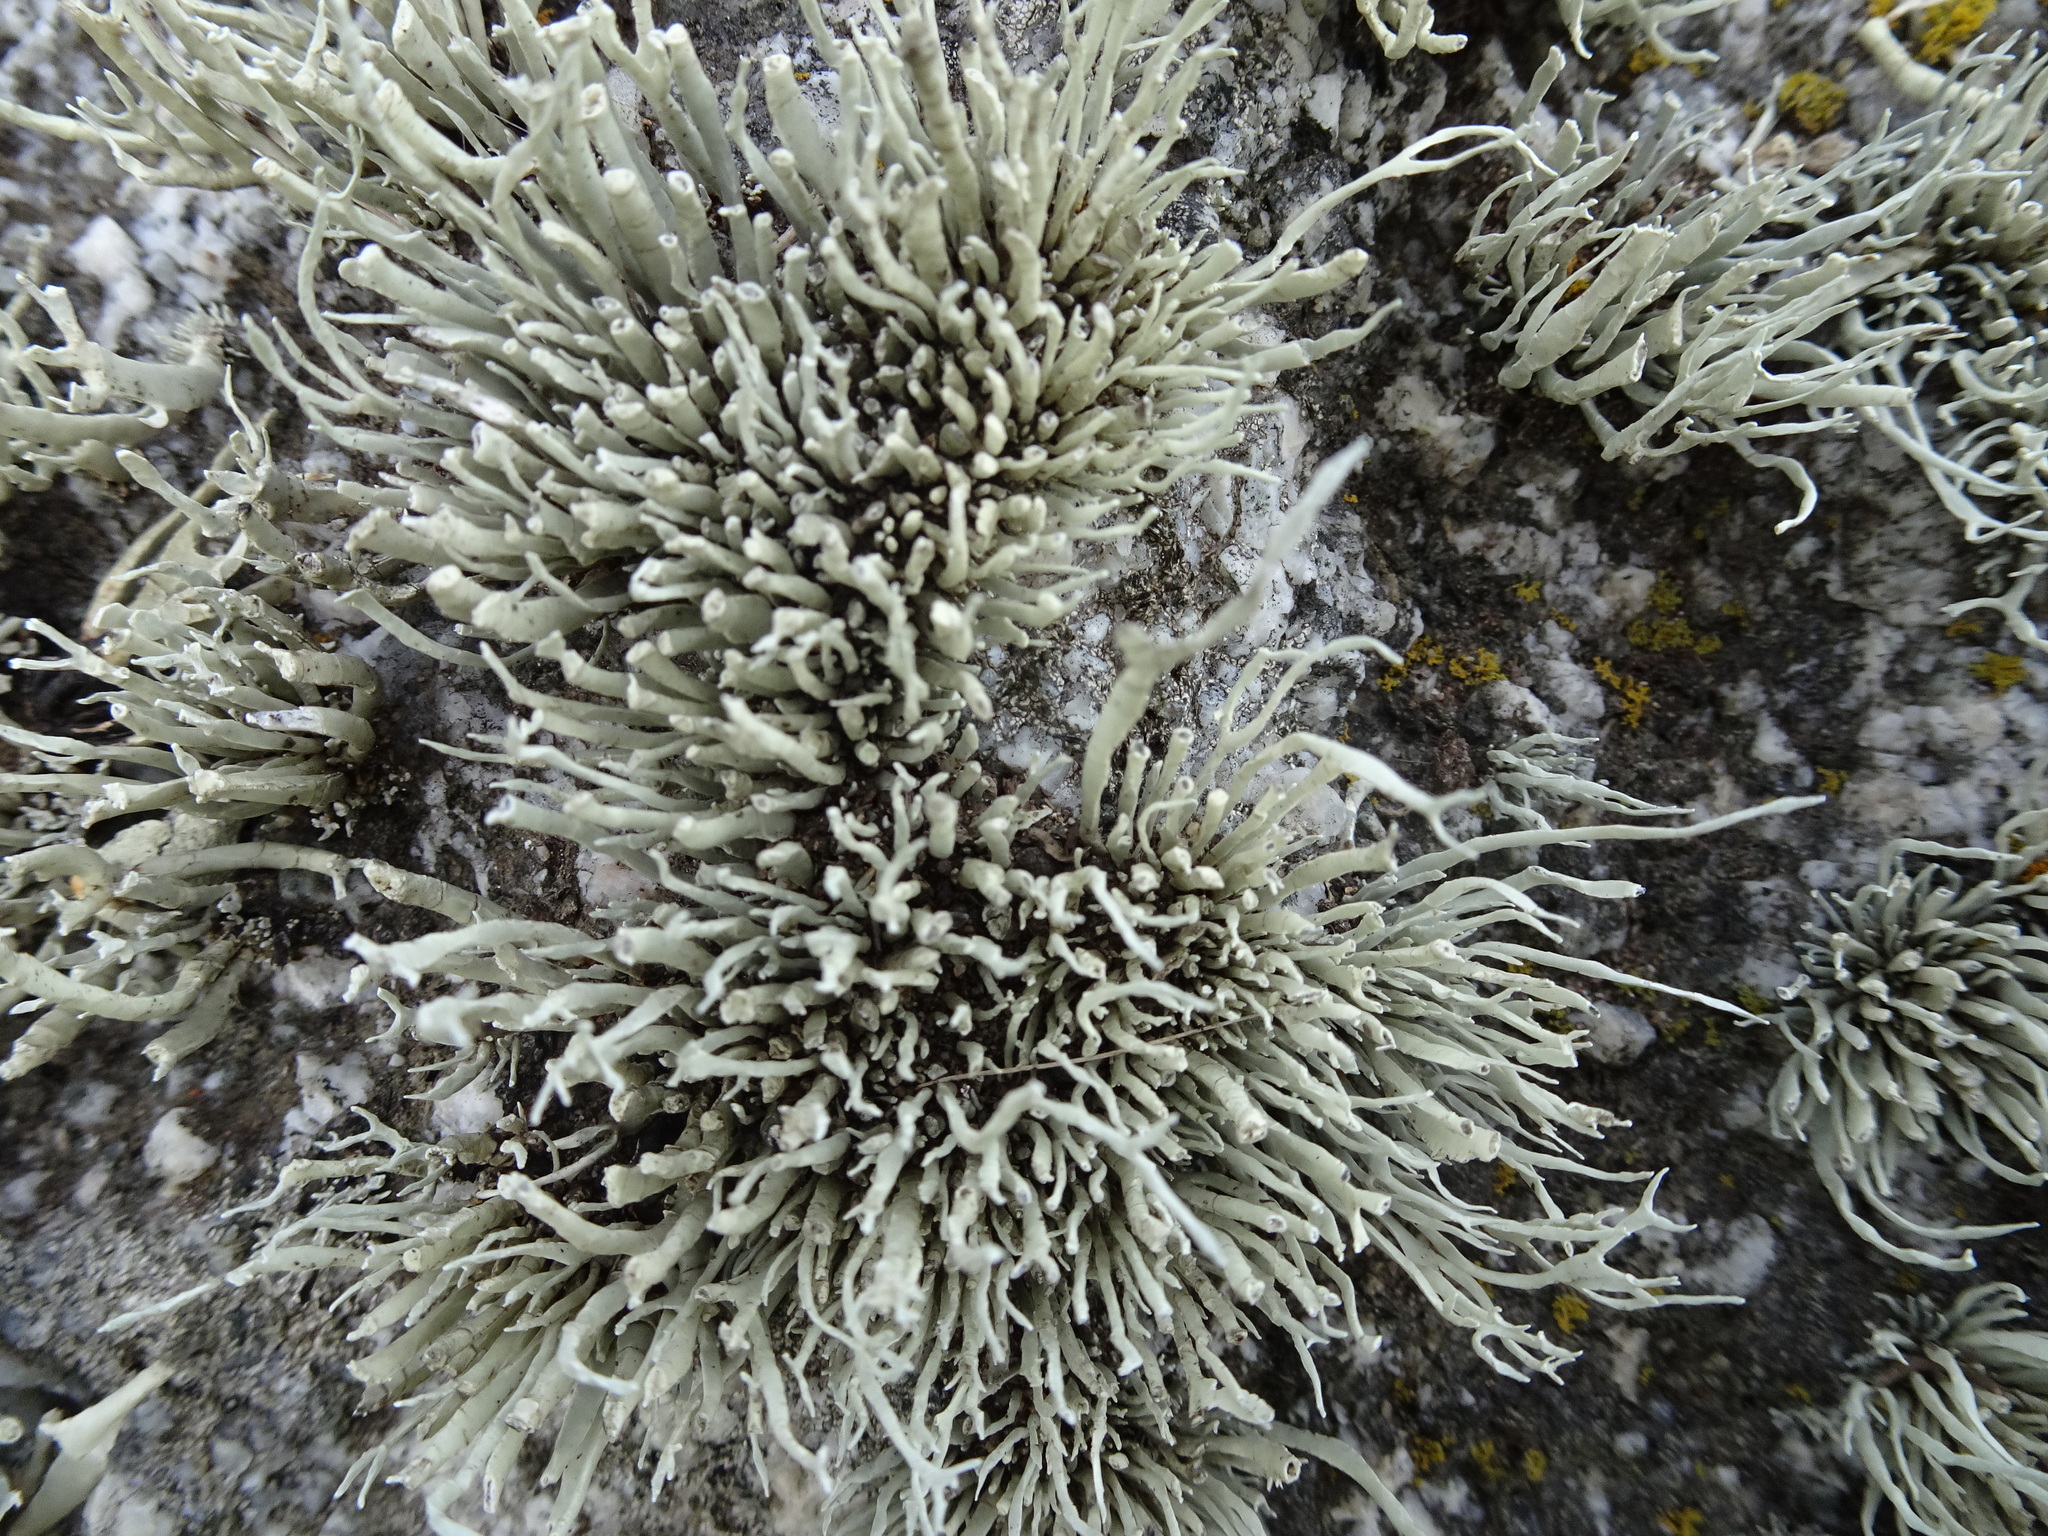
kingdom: Fungi
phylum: Ascomycota
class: Lecanoromycetes
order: Lecanorales
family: Ramalinaceae
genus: Niebla
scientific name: Niebla homalea
